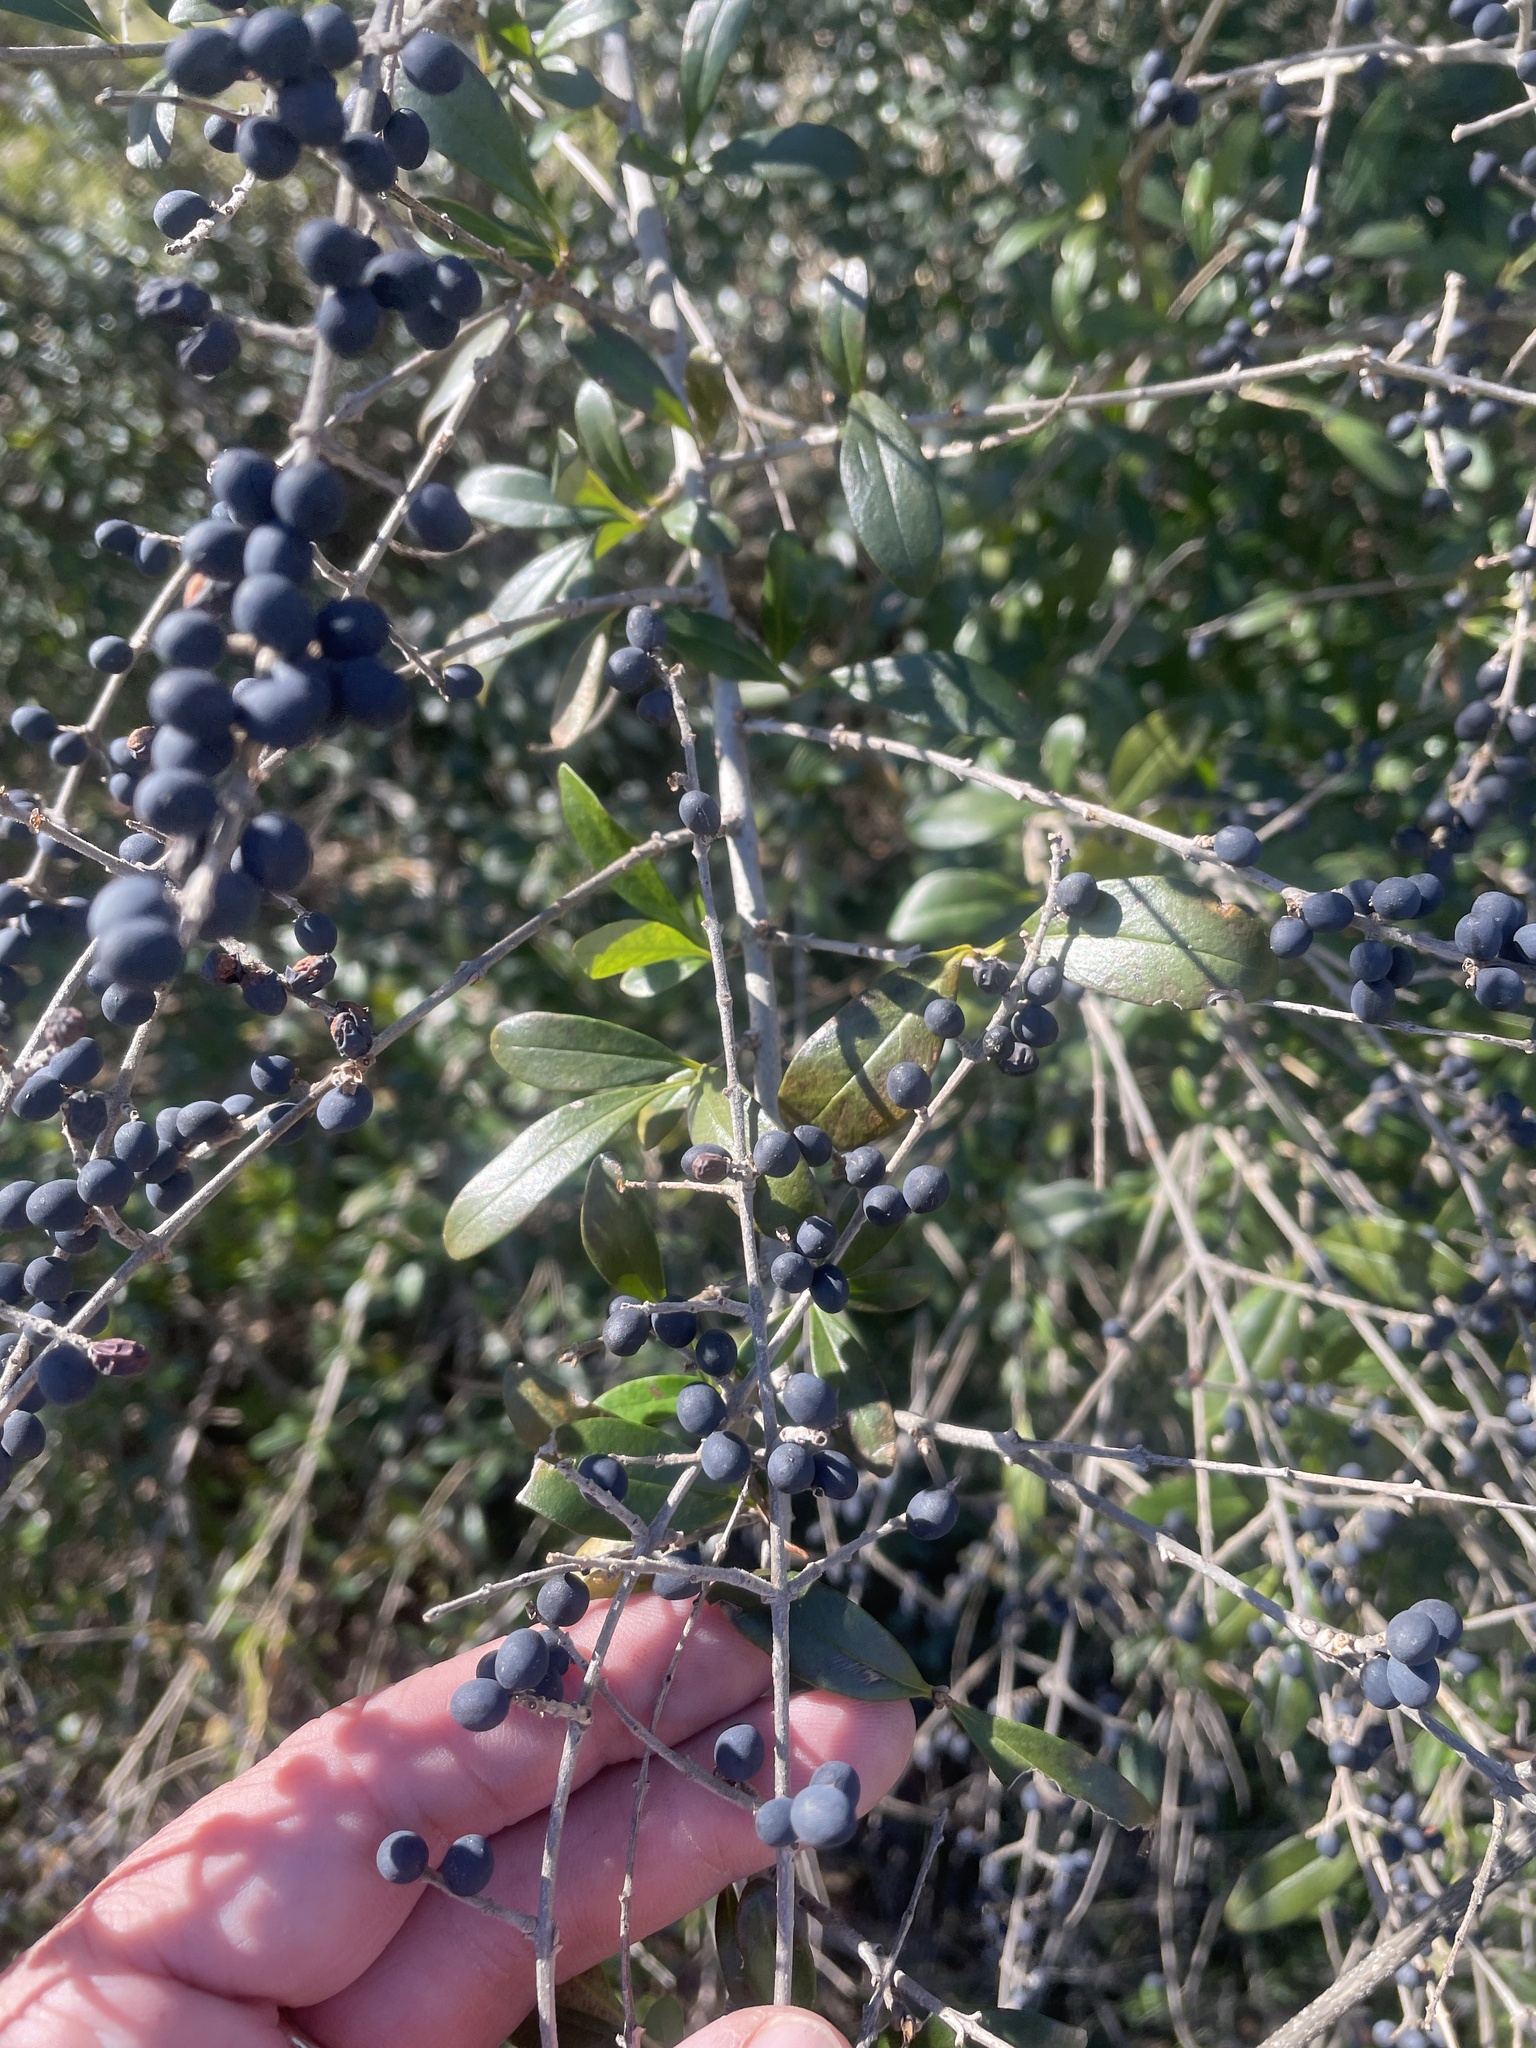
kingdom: Plantae
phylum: Tracheophyta
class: Magnoliopsida
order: Lamiales
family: Oleaceae
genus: Ligustrum
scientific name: Ligustrum quihoui
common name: Waxyleaf privet
